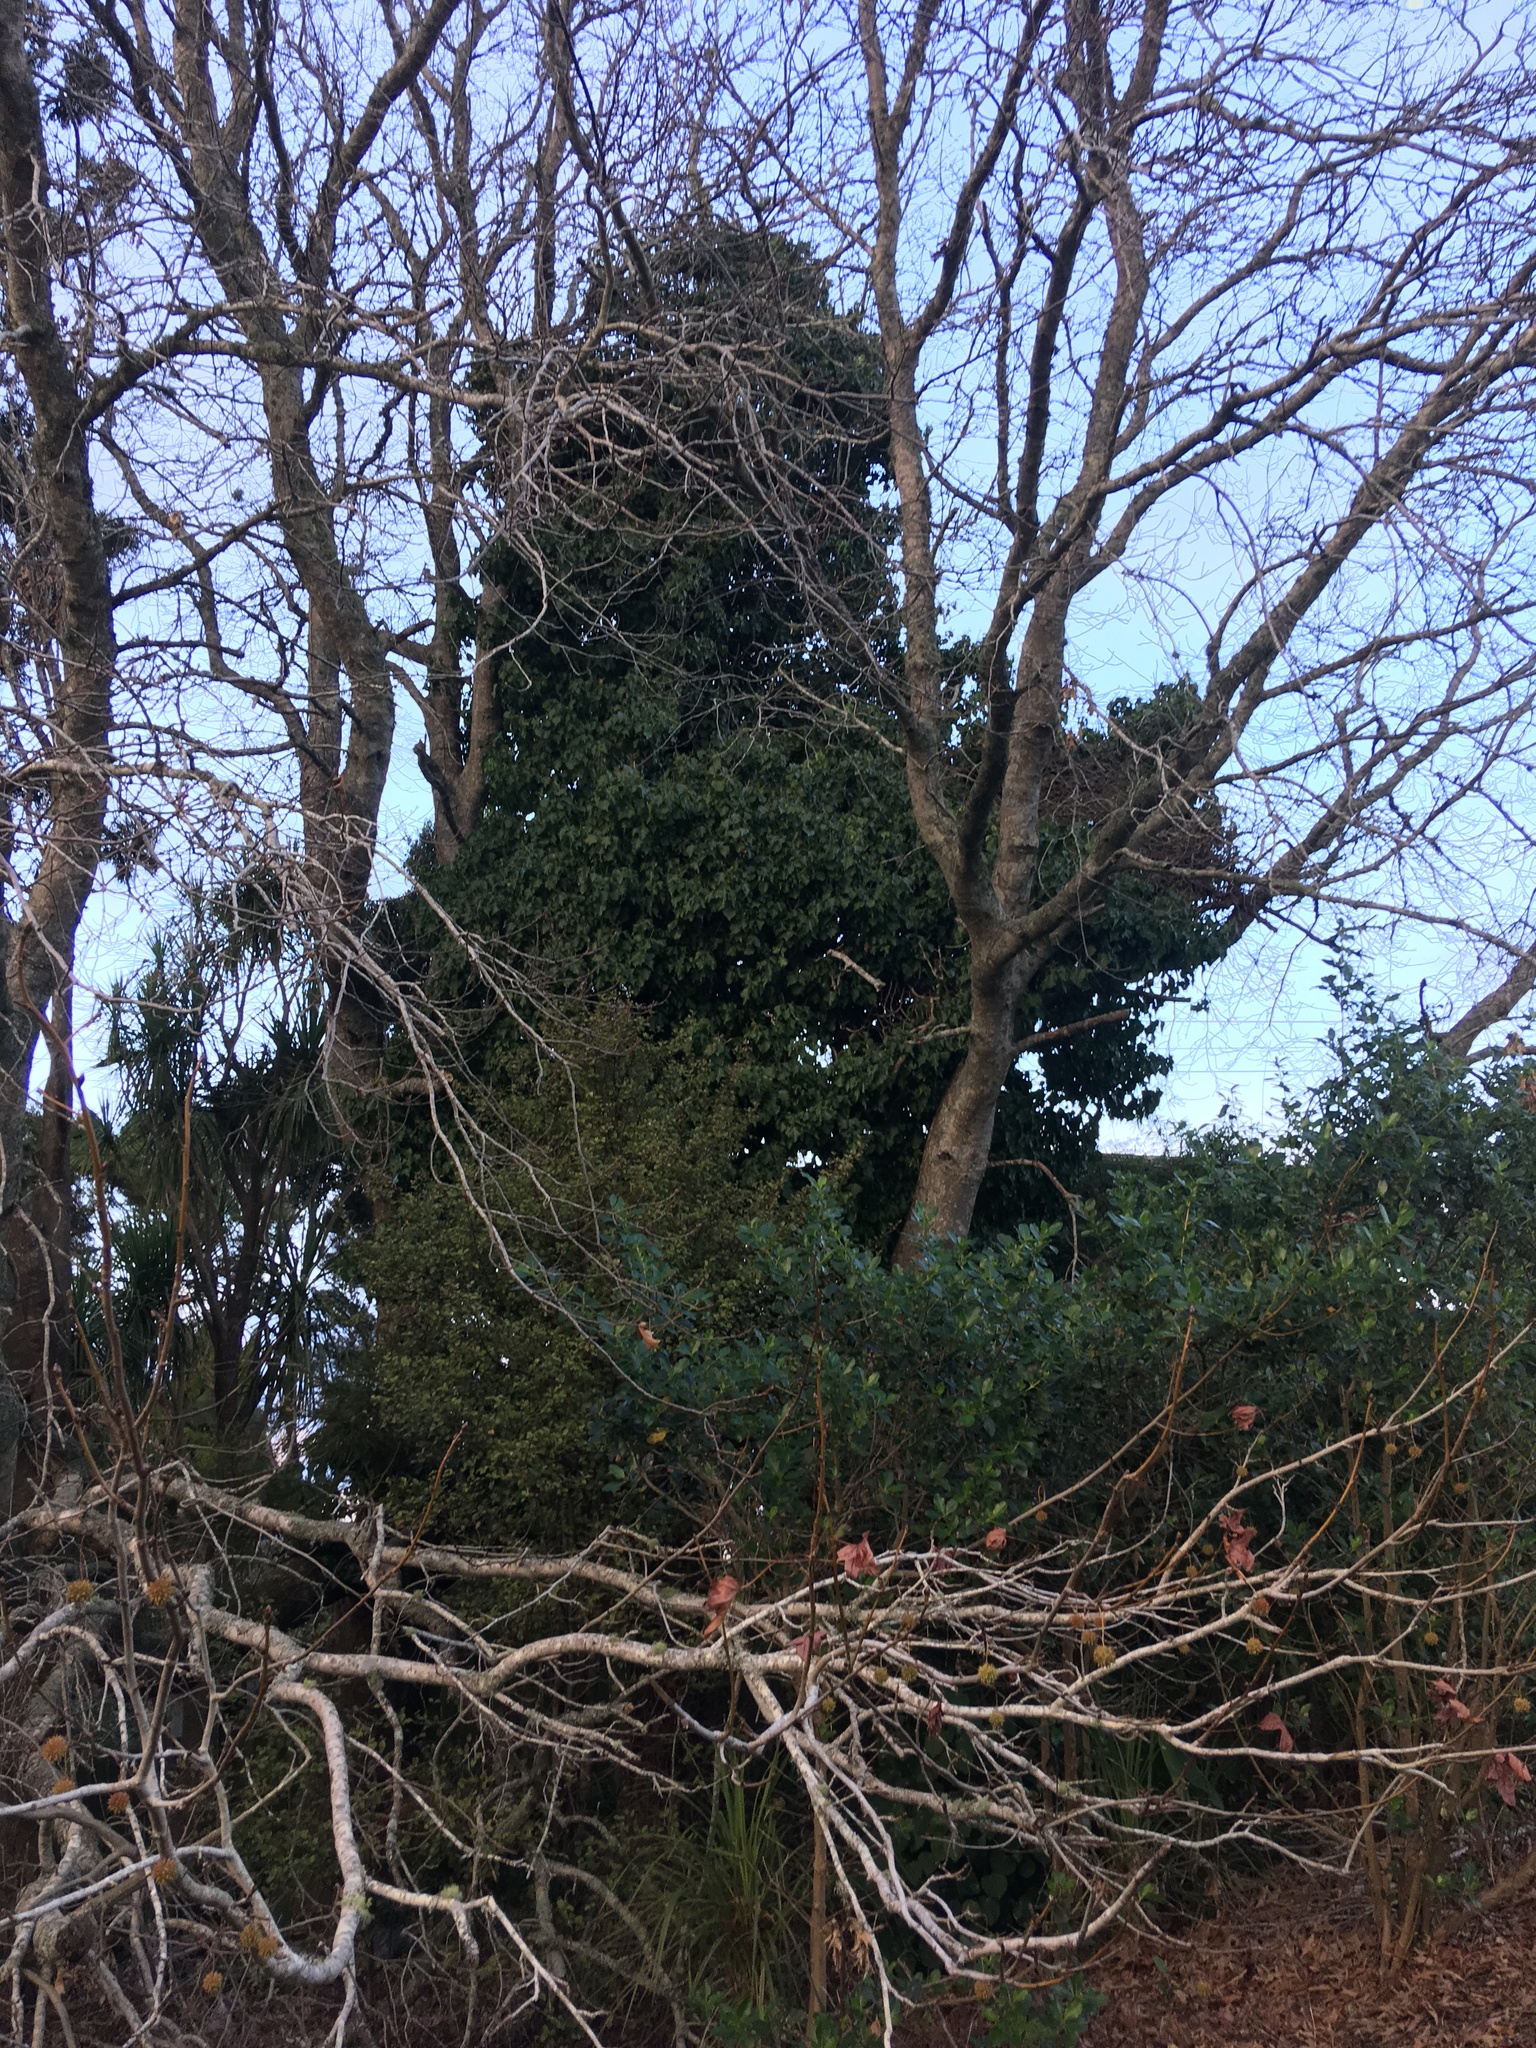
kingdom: Plantae
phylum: Tracheophyta
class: Magnoliopsida
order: Apiales
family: Araliaceae
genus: Hedera
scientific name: Hedera helix
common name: Ivy
